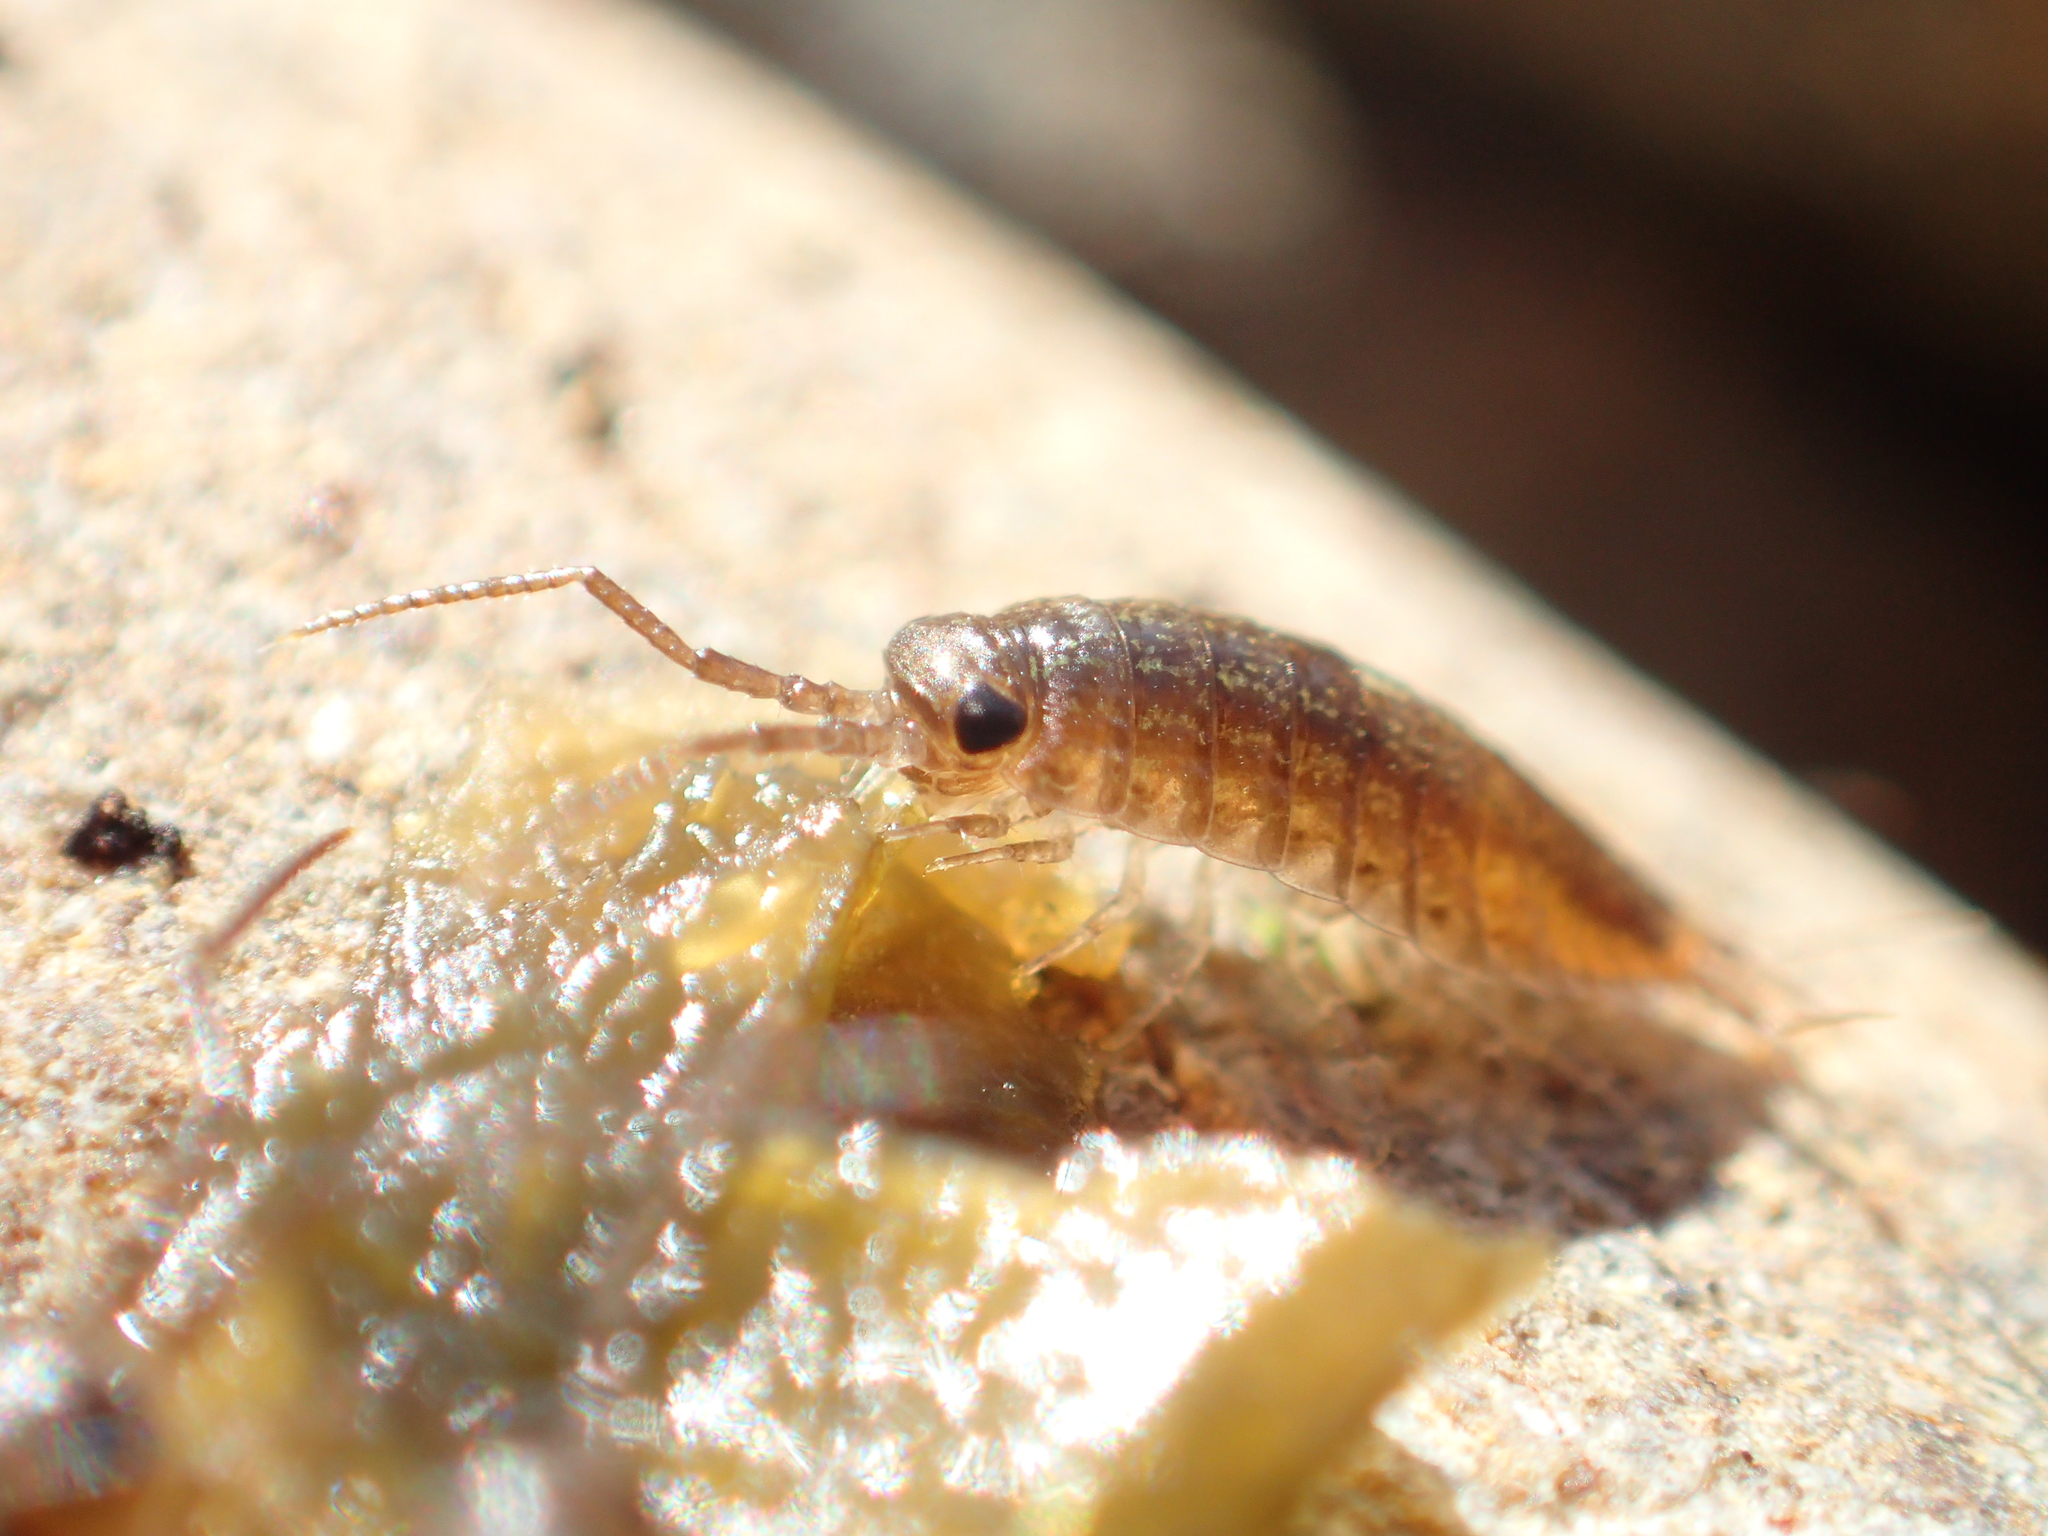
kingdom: Animalia
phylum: Arthropoda
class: Malacostraca
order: Isopoda
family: Ligiidae
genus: Ligia
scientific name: Ligia novizealandiae
